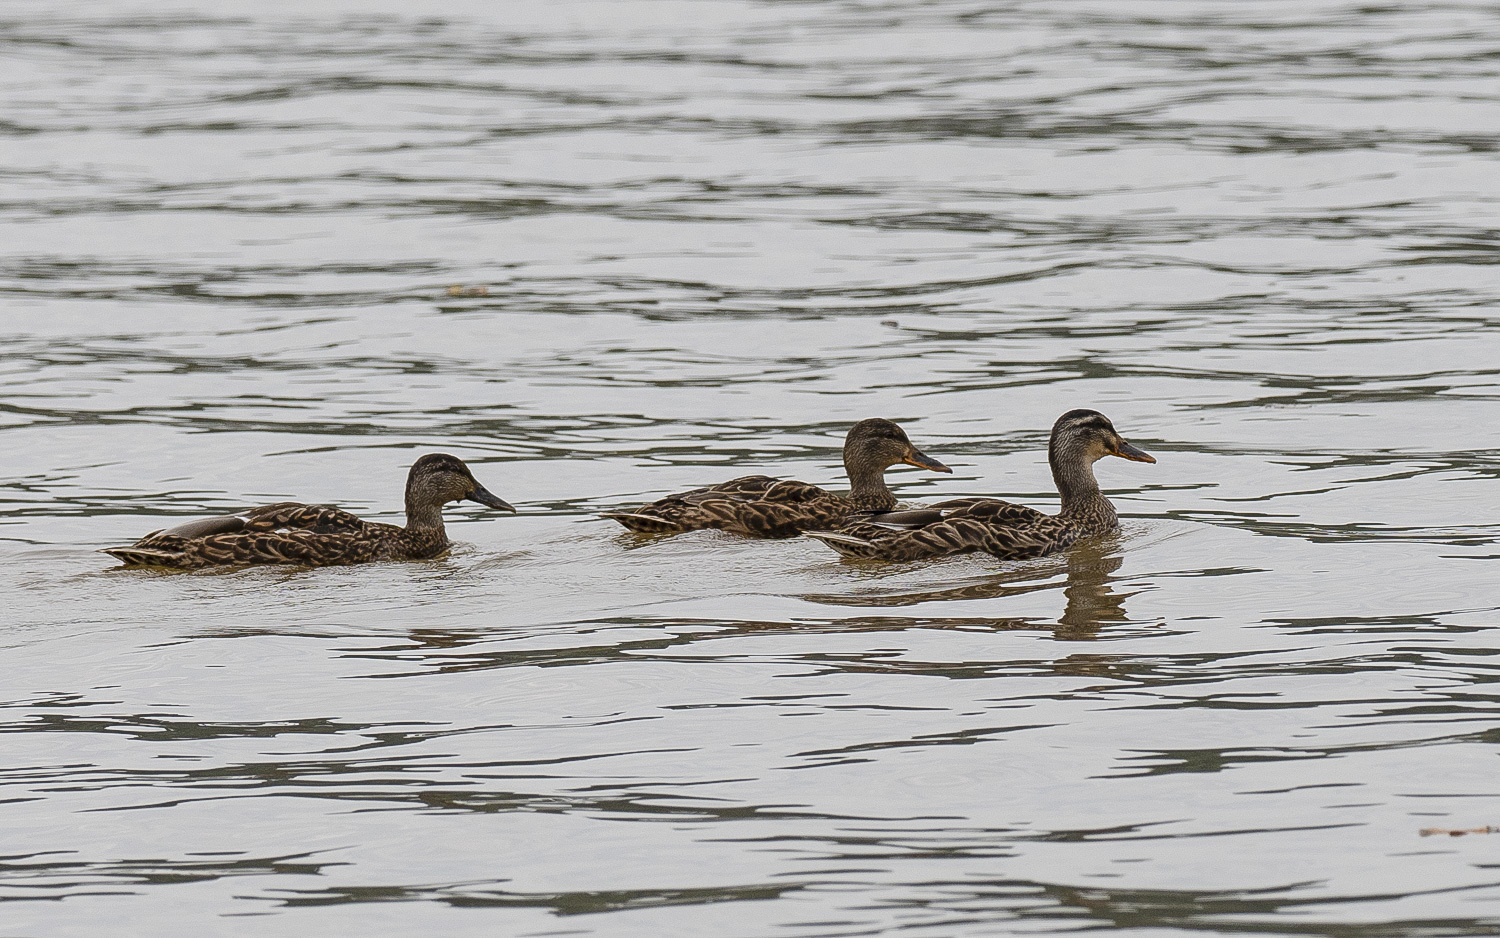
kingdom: Animalia
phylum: Chordata
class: Aves
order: Anseriformes
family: Anatidae
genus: Anas
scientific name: Anas platyrhynchos
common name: Mallard
